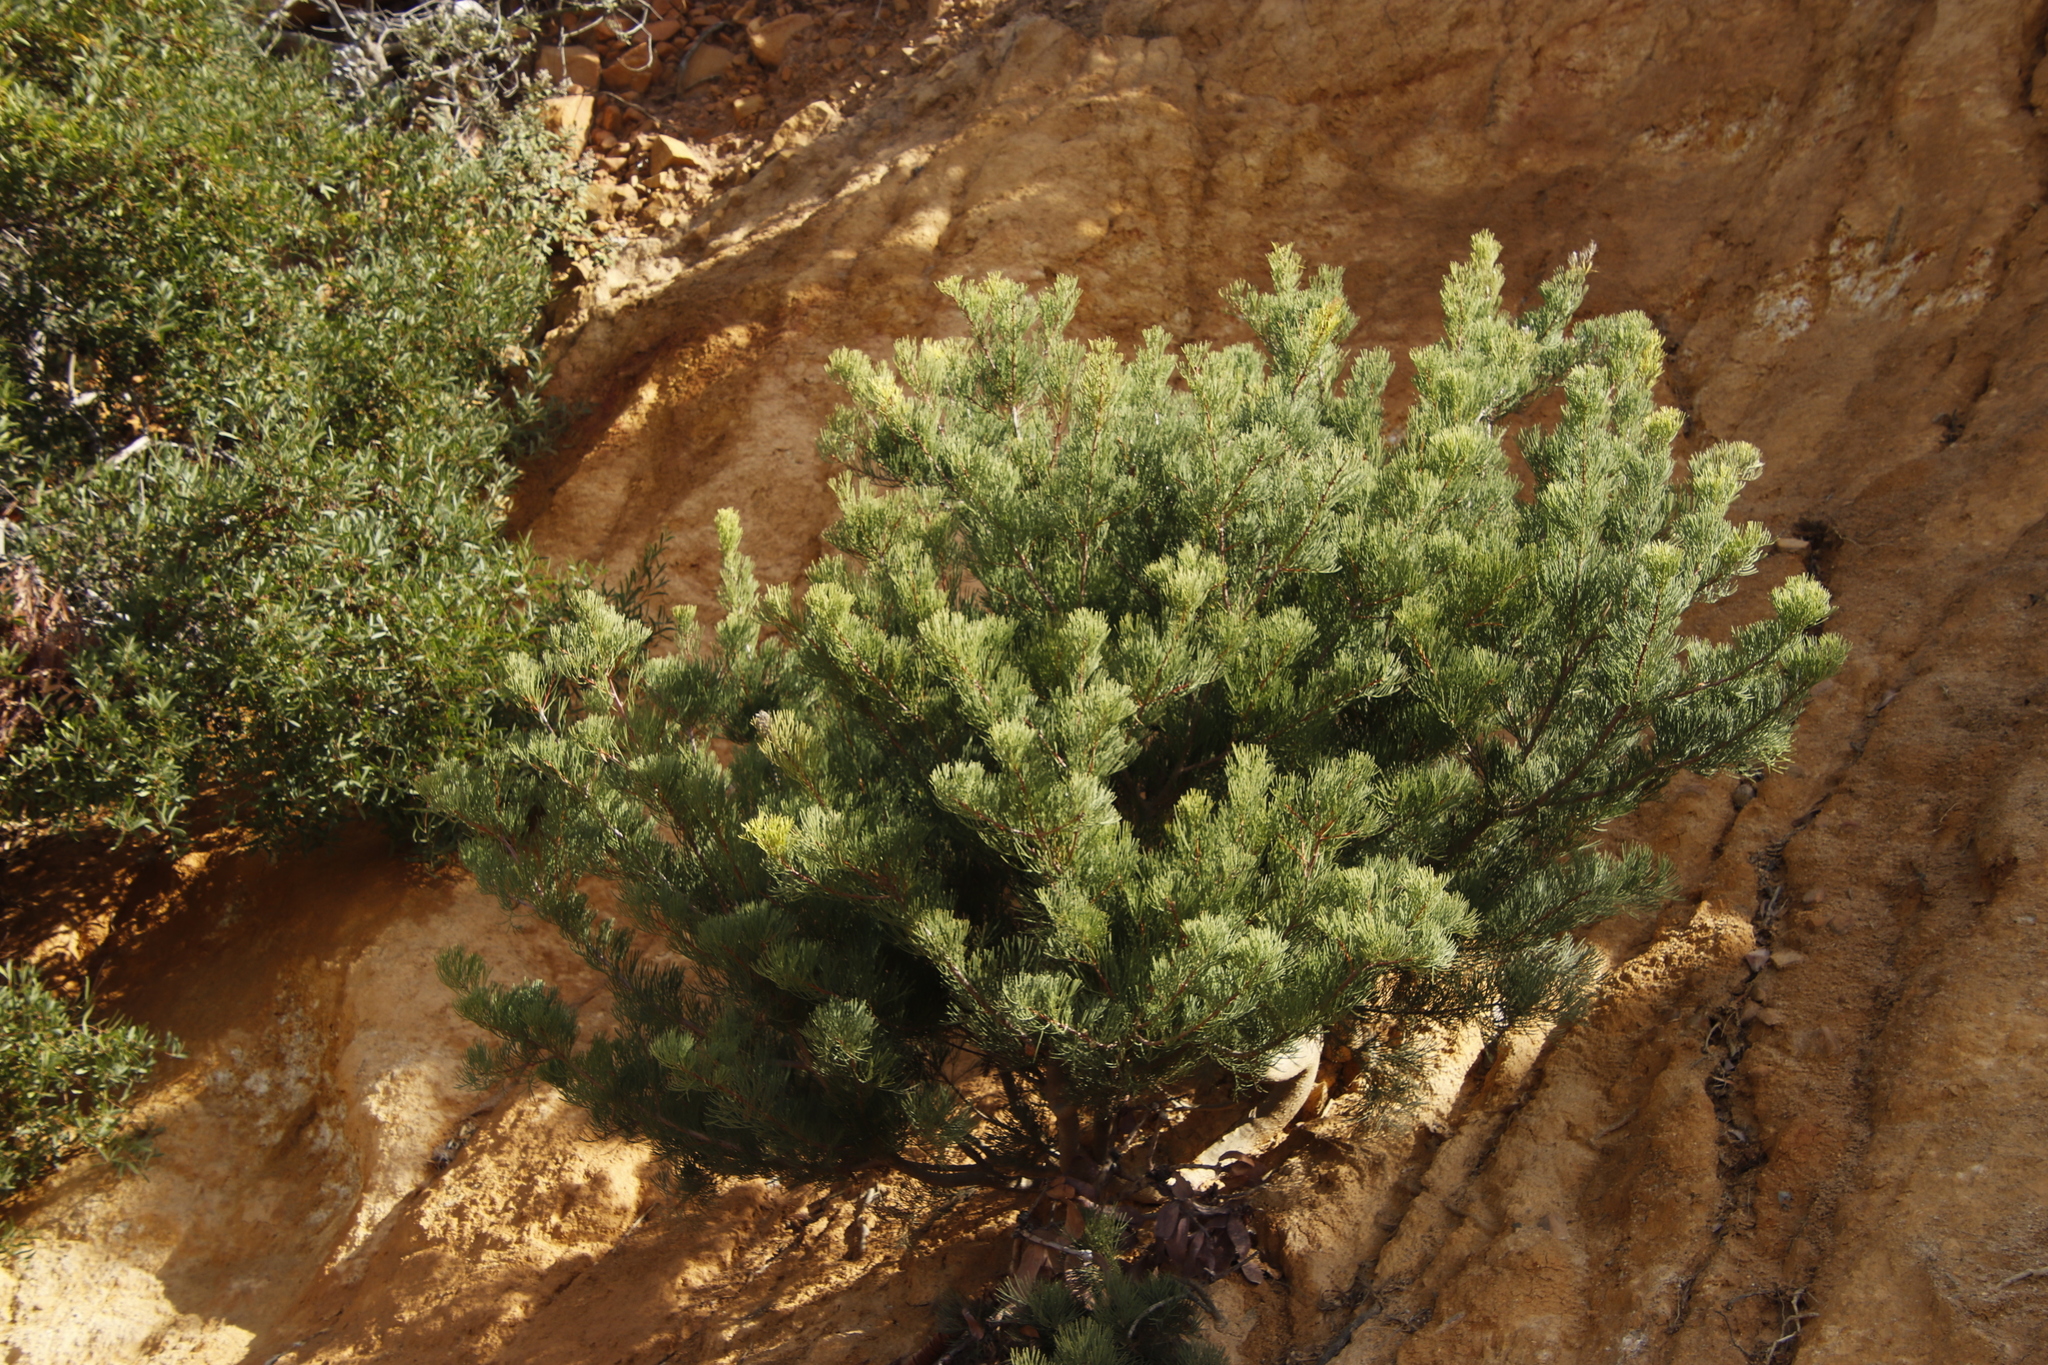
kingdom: Plantae
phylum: Tracheophyta
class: Magnoliopsida
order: Proteales
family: Proteaceae
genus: Hakea
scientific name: Hakea drupacea
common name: Sweet hakea
